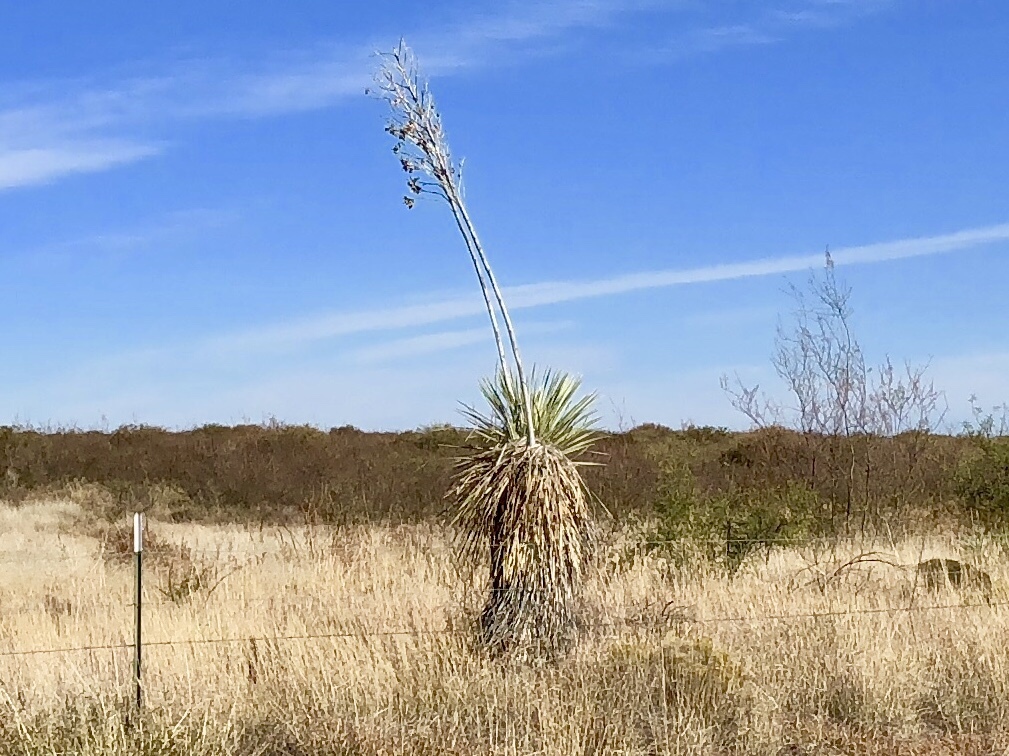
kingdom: Plantae
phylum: Tracheophyta
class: Liliopsida
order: Asparagales
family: Asparagaceae
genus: Yucca
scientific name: Yucca elata
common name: Palmella
